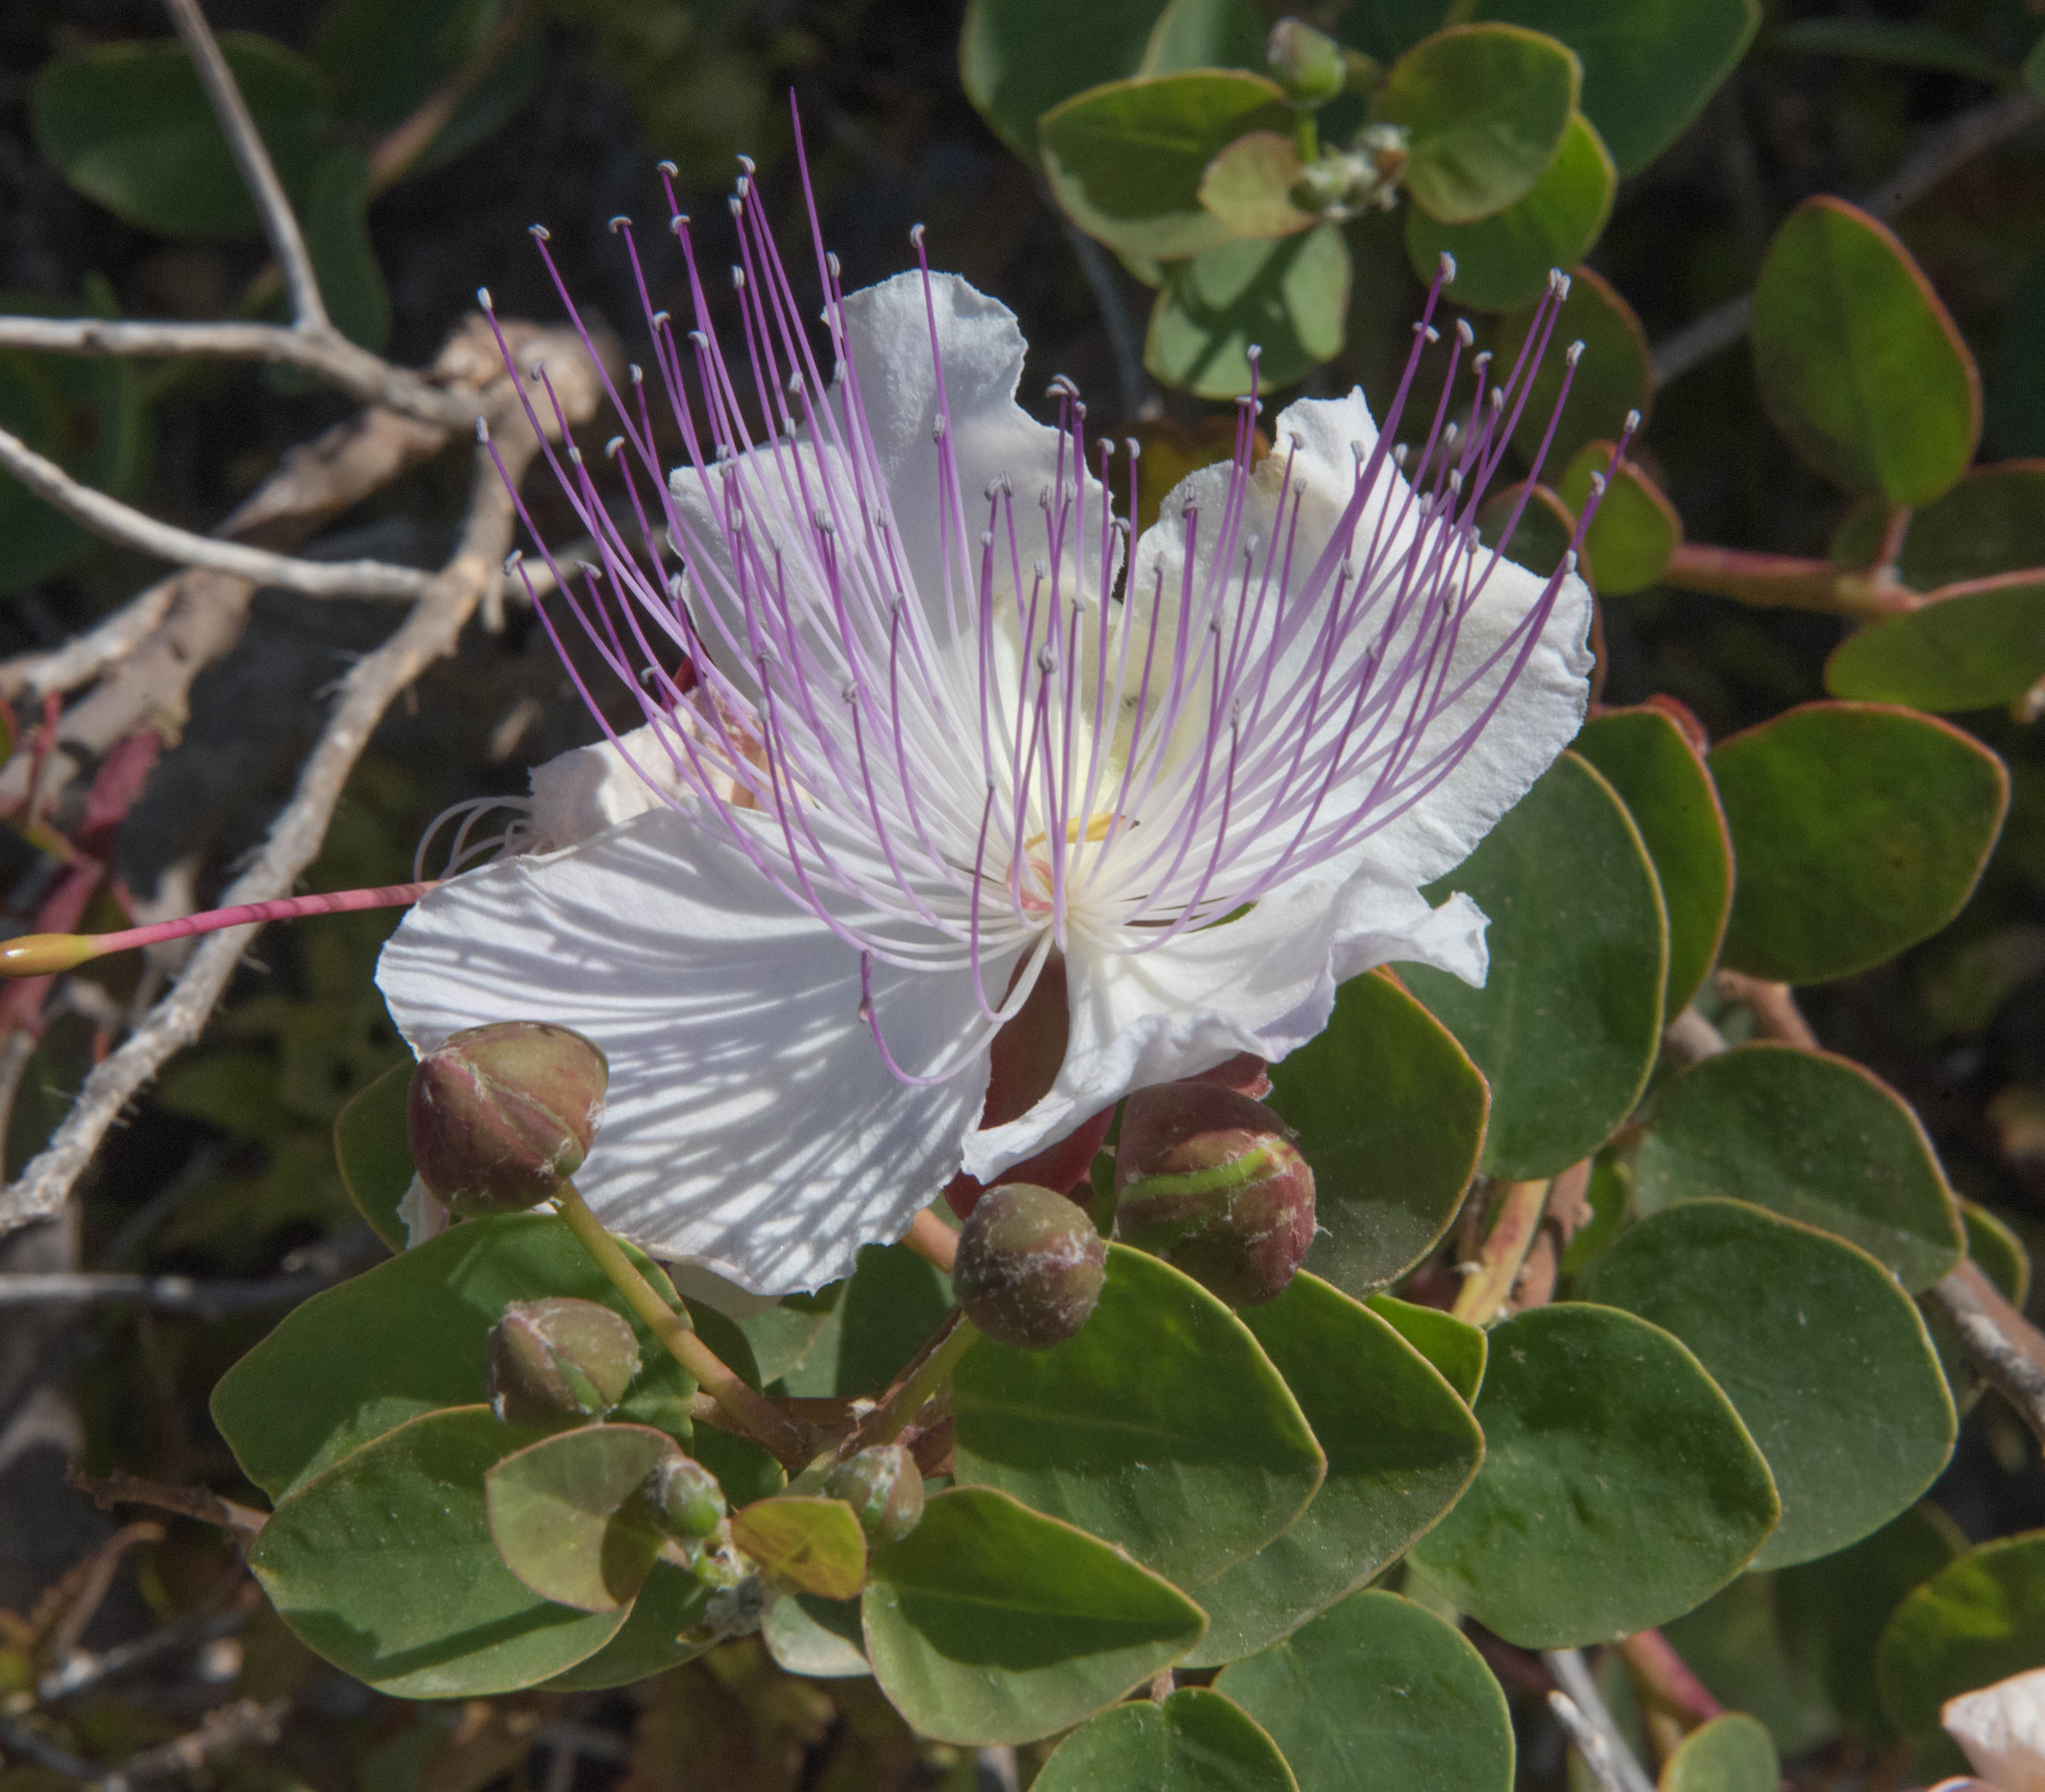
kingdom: Plantae
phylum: Tracheophyta
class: Magnoliopsida
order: Brassicales
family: Capparaceae
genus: Capparis
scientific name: Capparis orientalis
